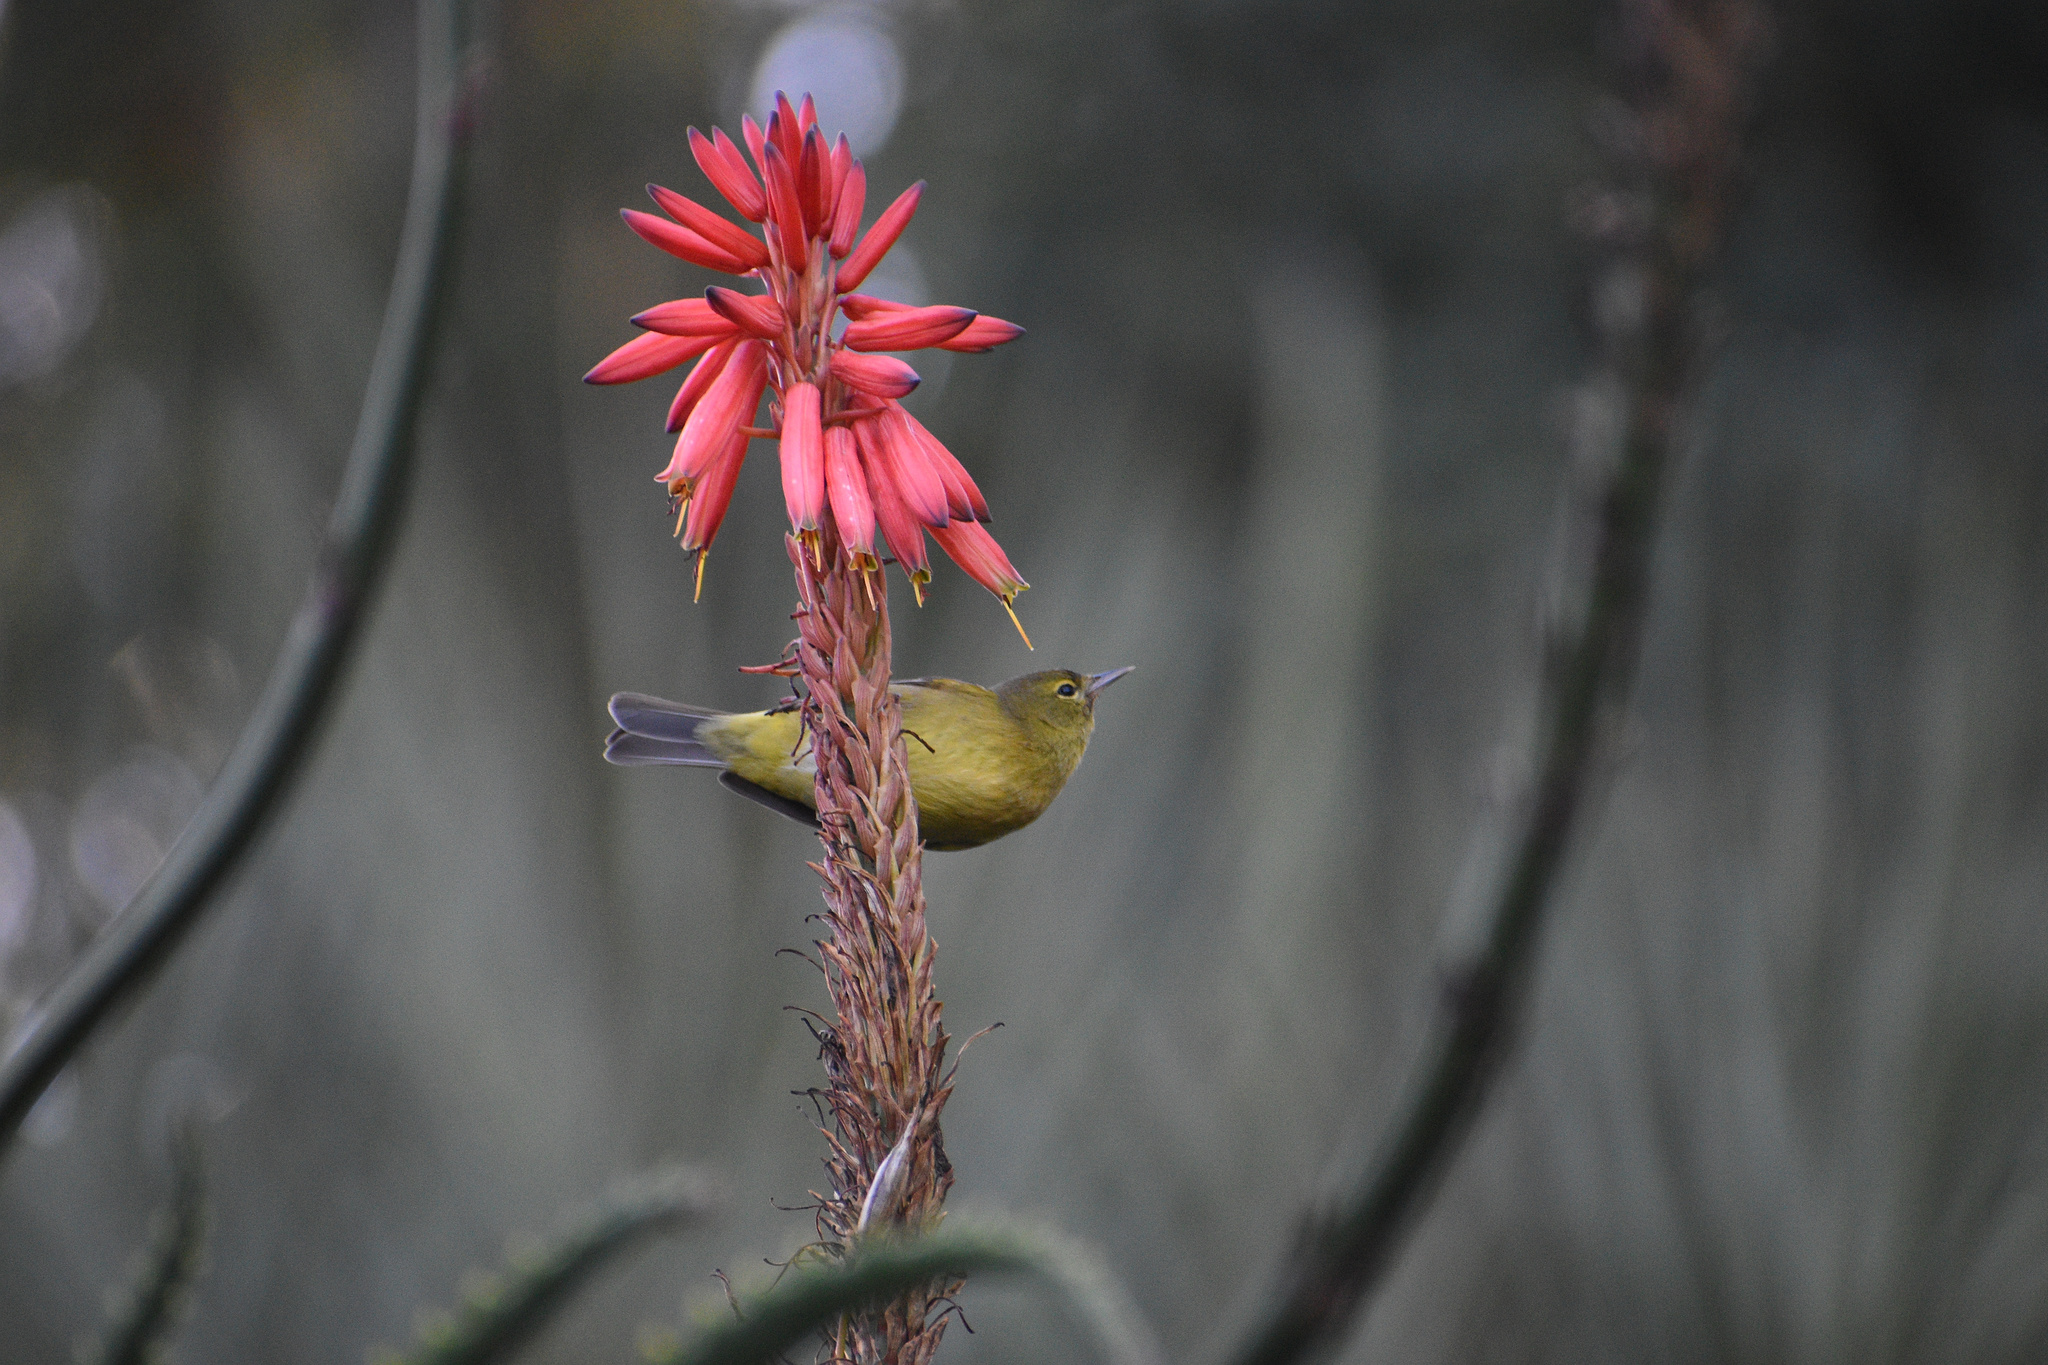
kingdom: Animalia
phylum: Chordata
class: Aves
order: Passeriformes
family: Parulidae
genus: Leiothlypis
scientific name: Leiothlypis celata
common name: Orange-crowned warbler
